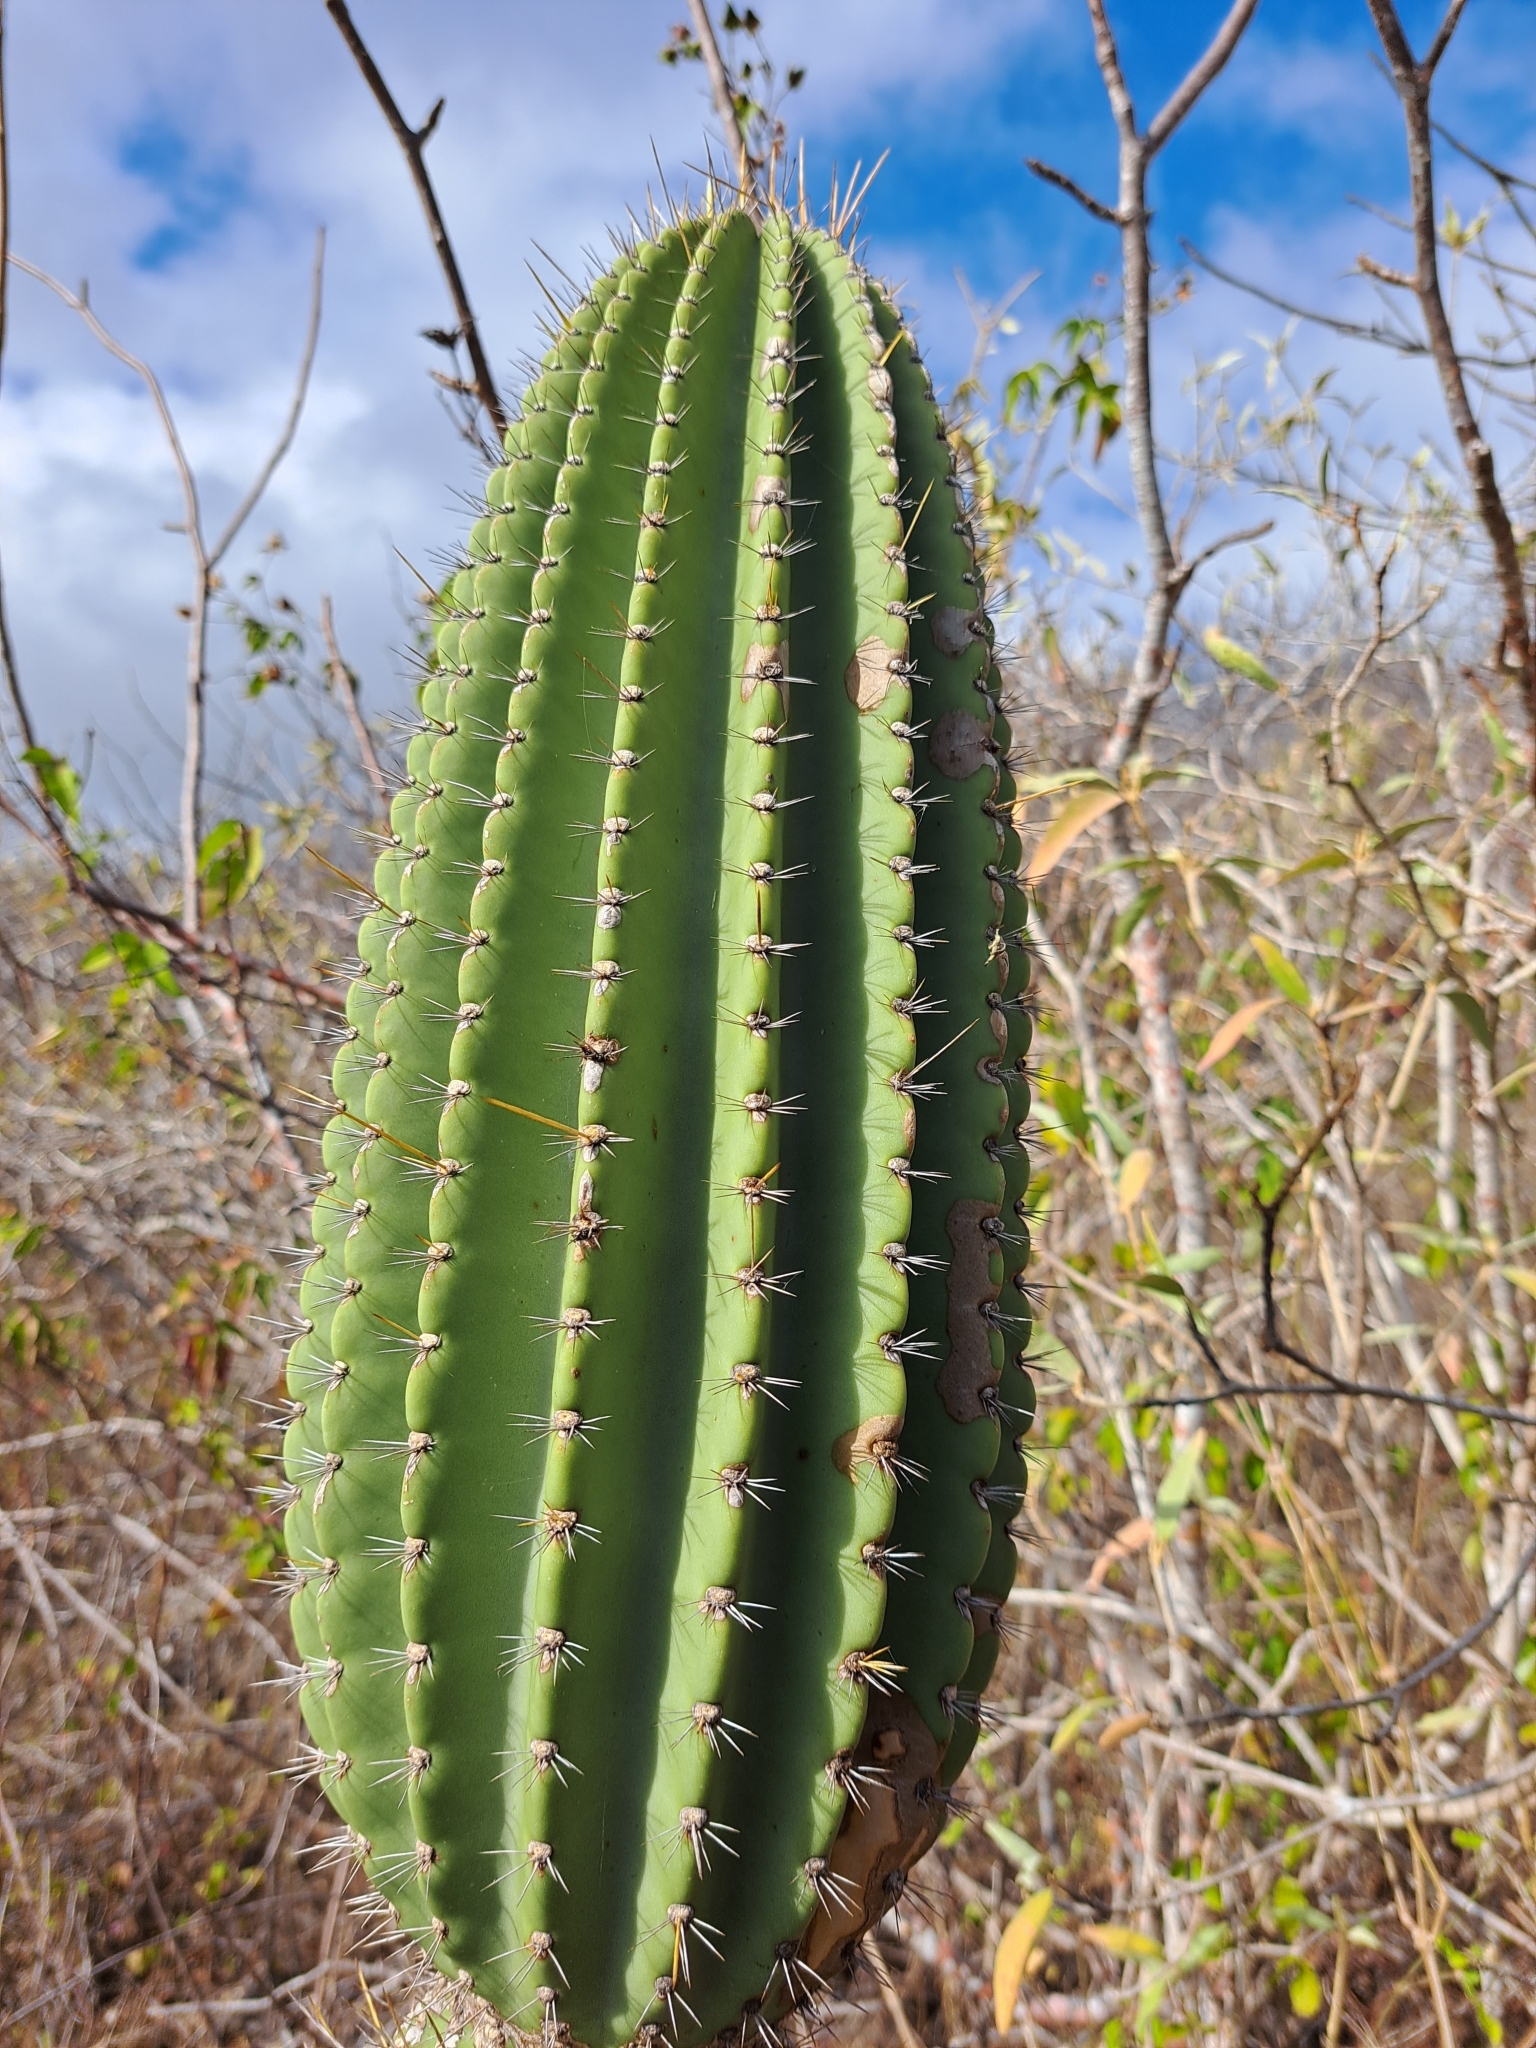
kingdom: Plantae
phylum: Tracheophyta
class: Magnoliopsida
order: Caryophyllales
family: Cactaceae
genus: Jasminocereus
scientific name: Jasminocereus thouarsii
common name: Candelabra cactus
